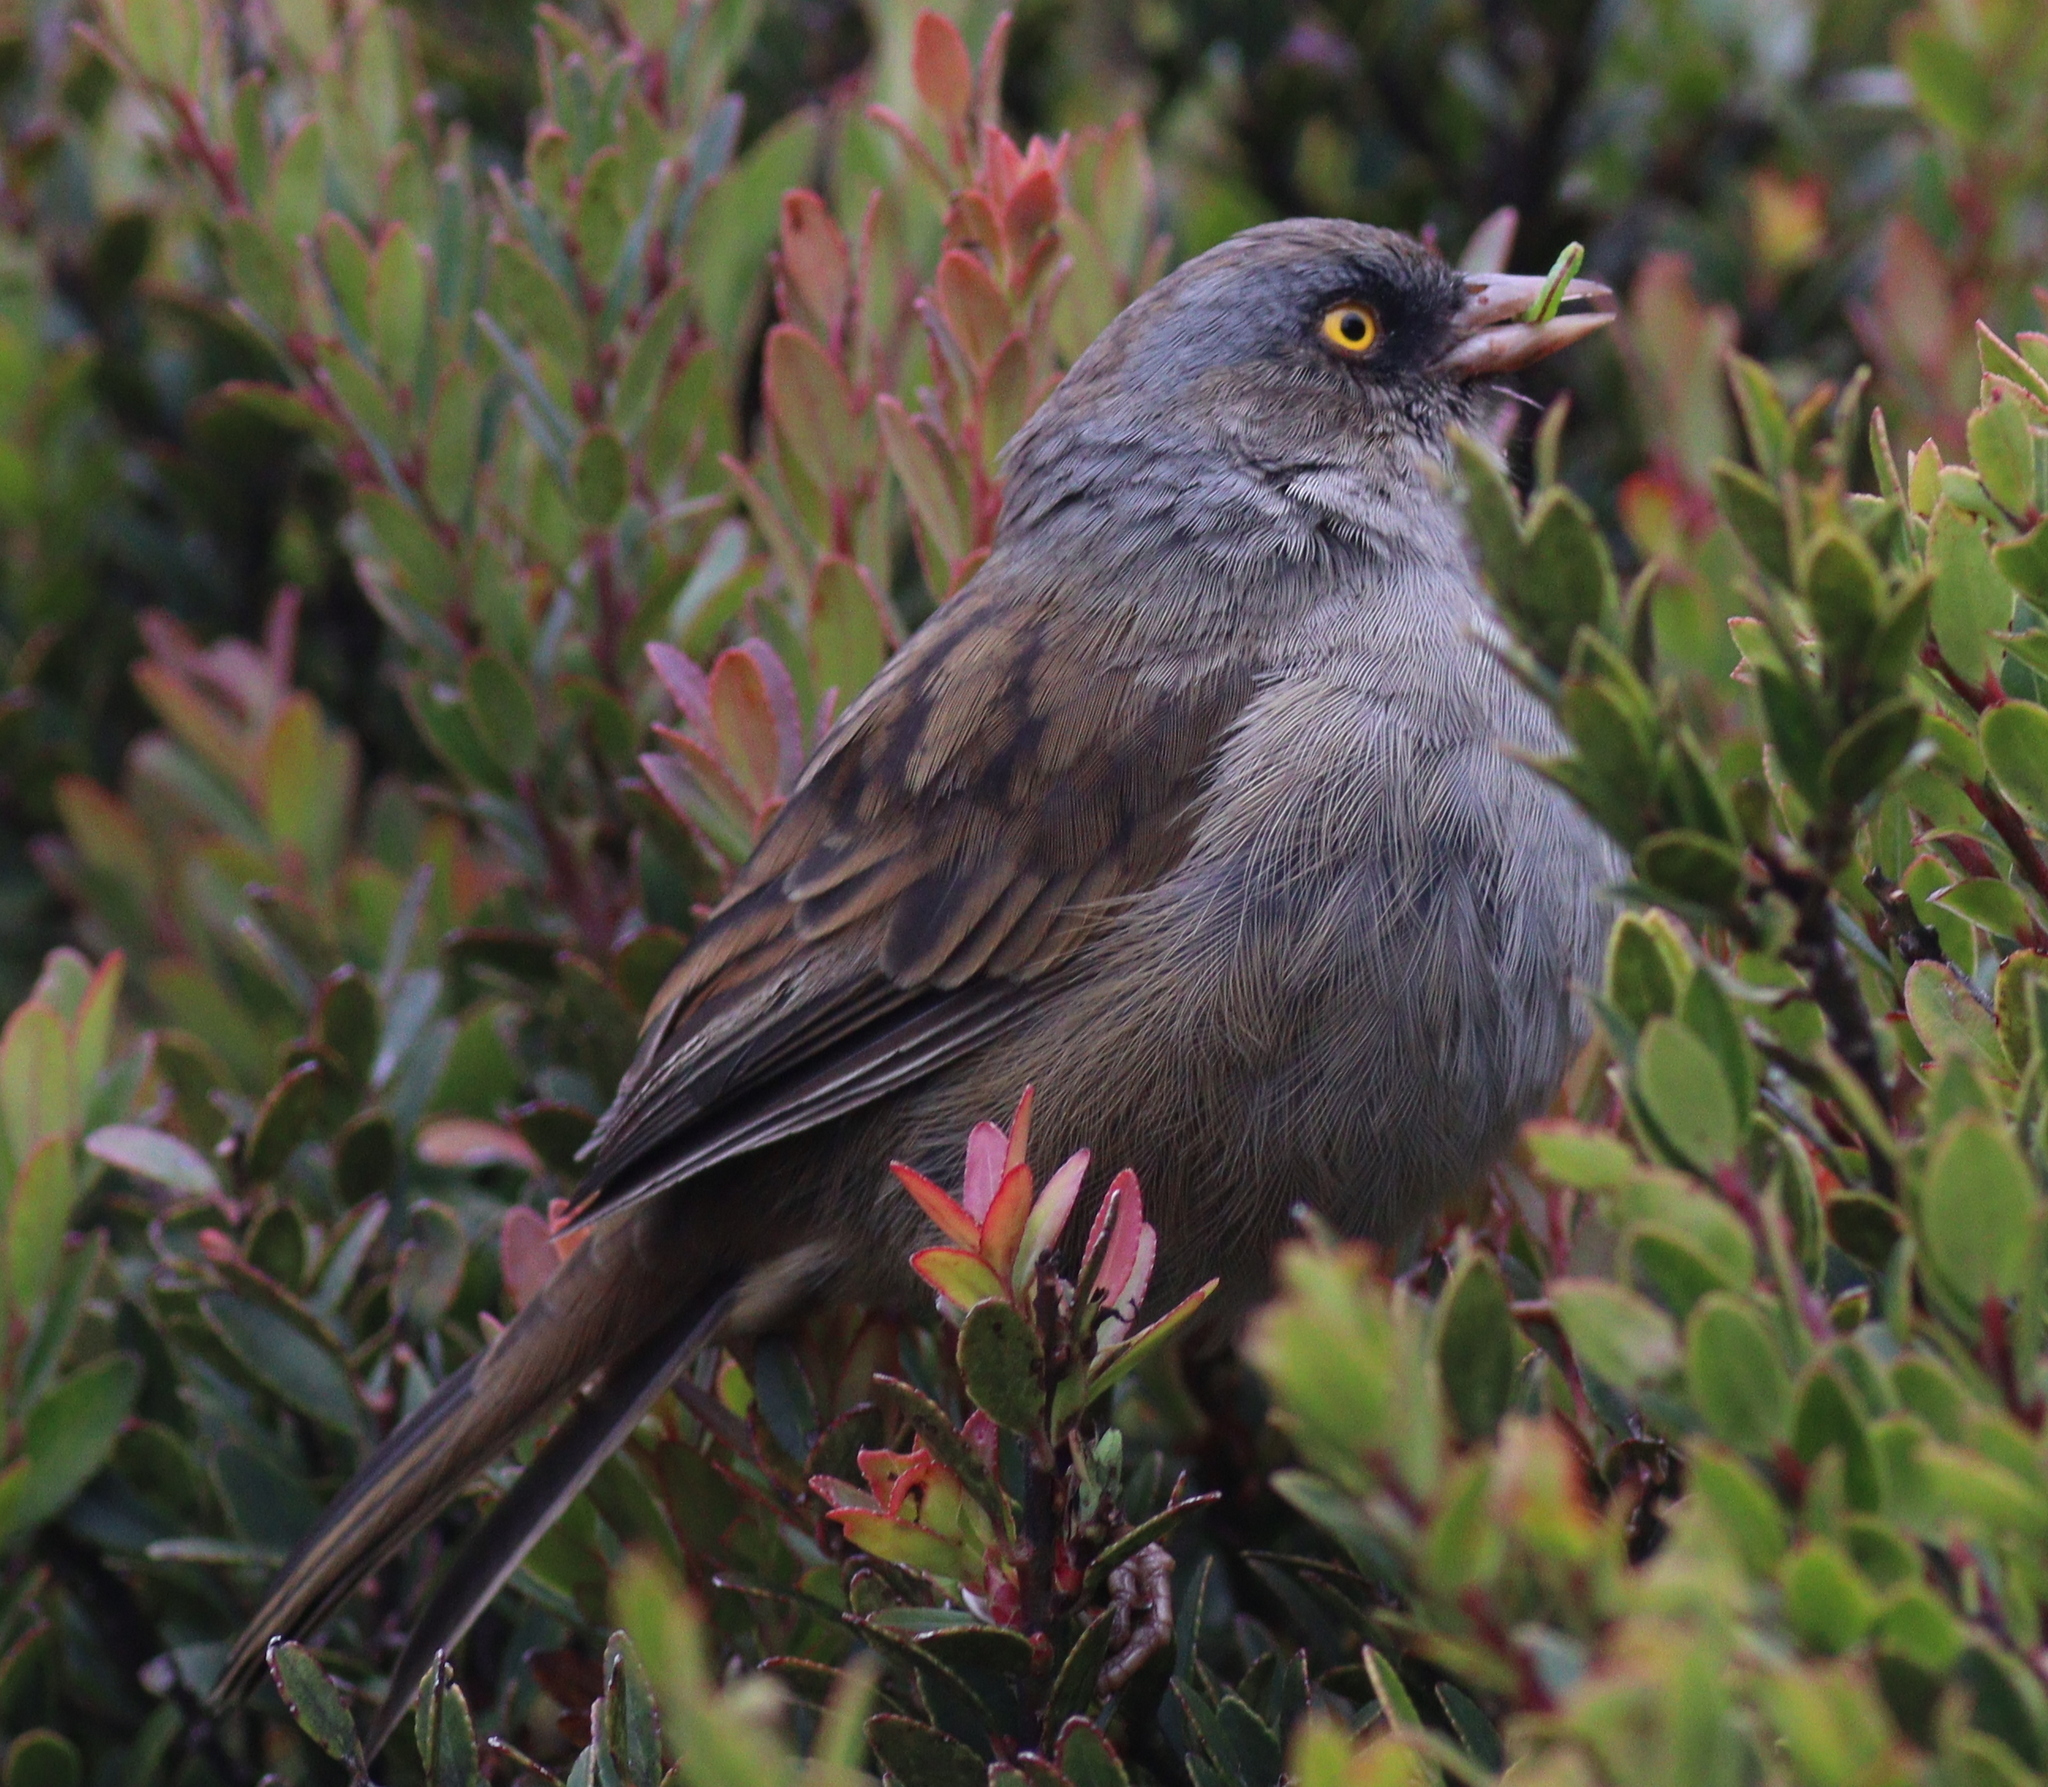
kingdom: Animalia
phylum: Chordata
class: Aves
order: Passeriformes
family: Passerellidae
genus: Junco
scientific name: Junco vulcani
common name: Volcano junco
